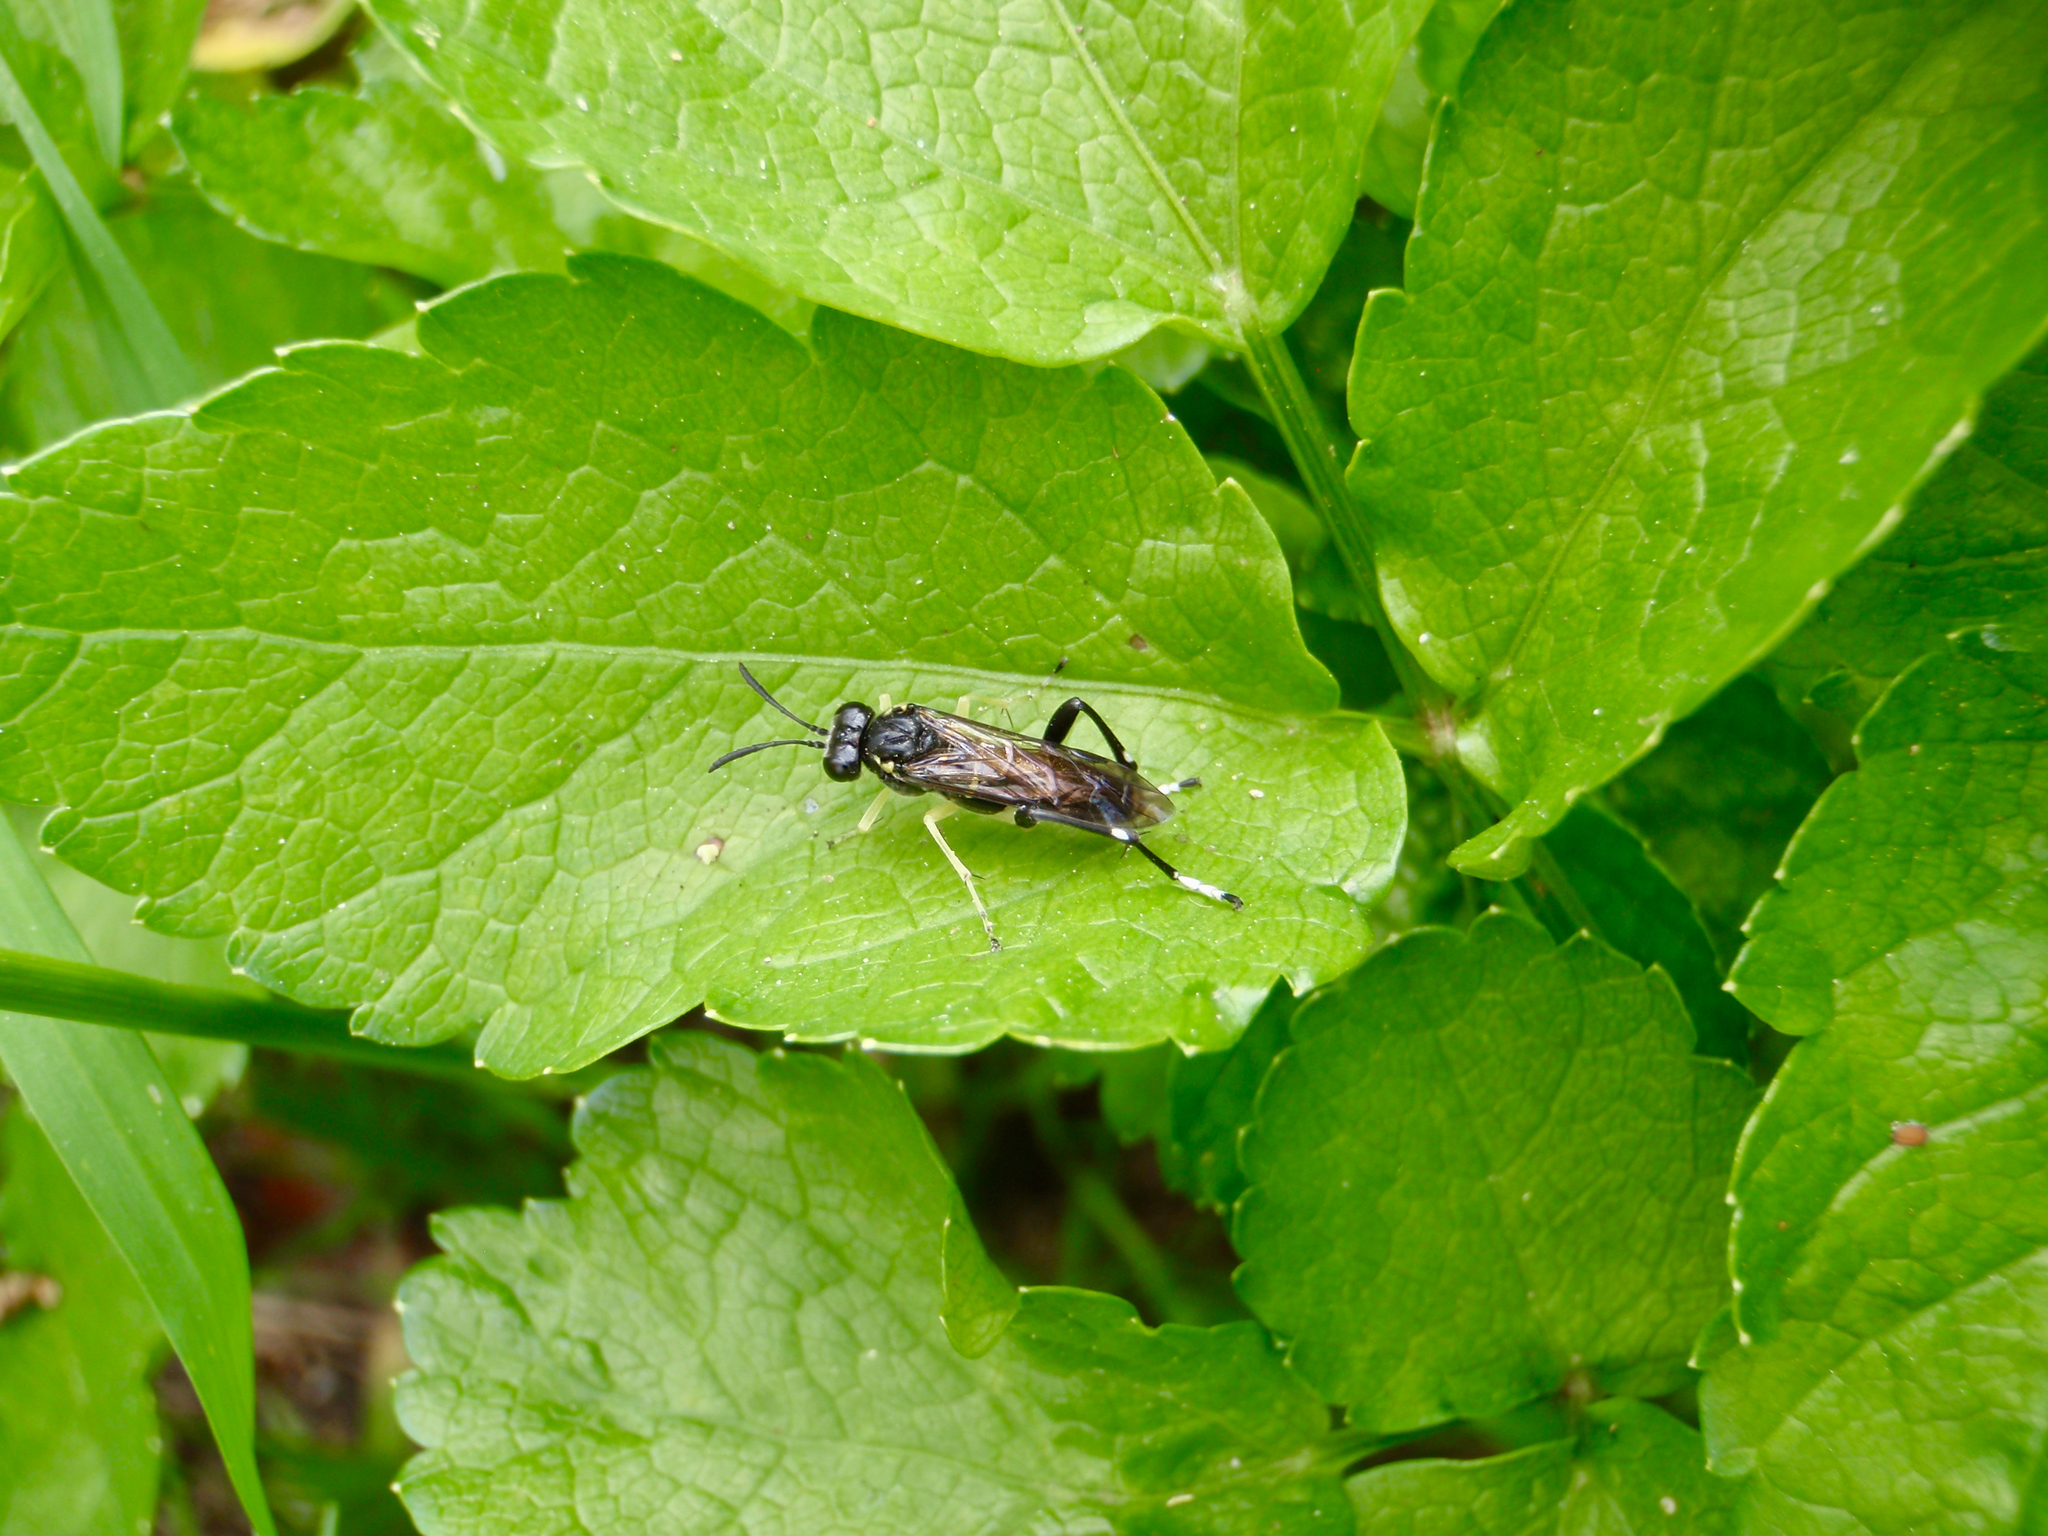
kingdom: Animalia
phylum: Arthropoda
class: Insecta
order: Hymenoptera
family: Tenthredinidae
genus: Macrophya
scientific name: Macrophya montana
